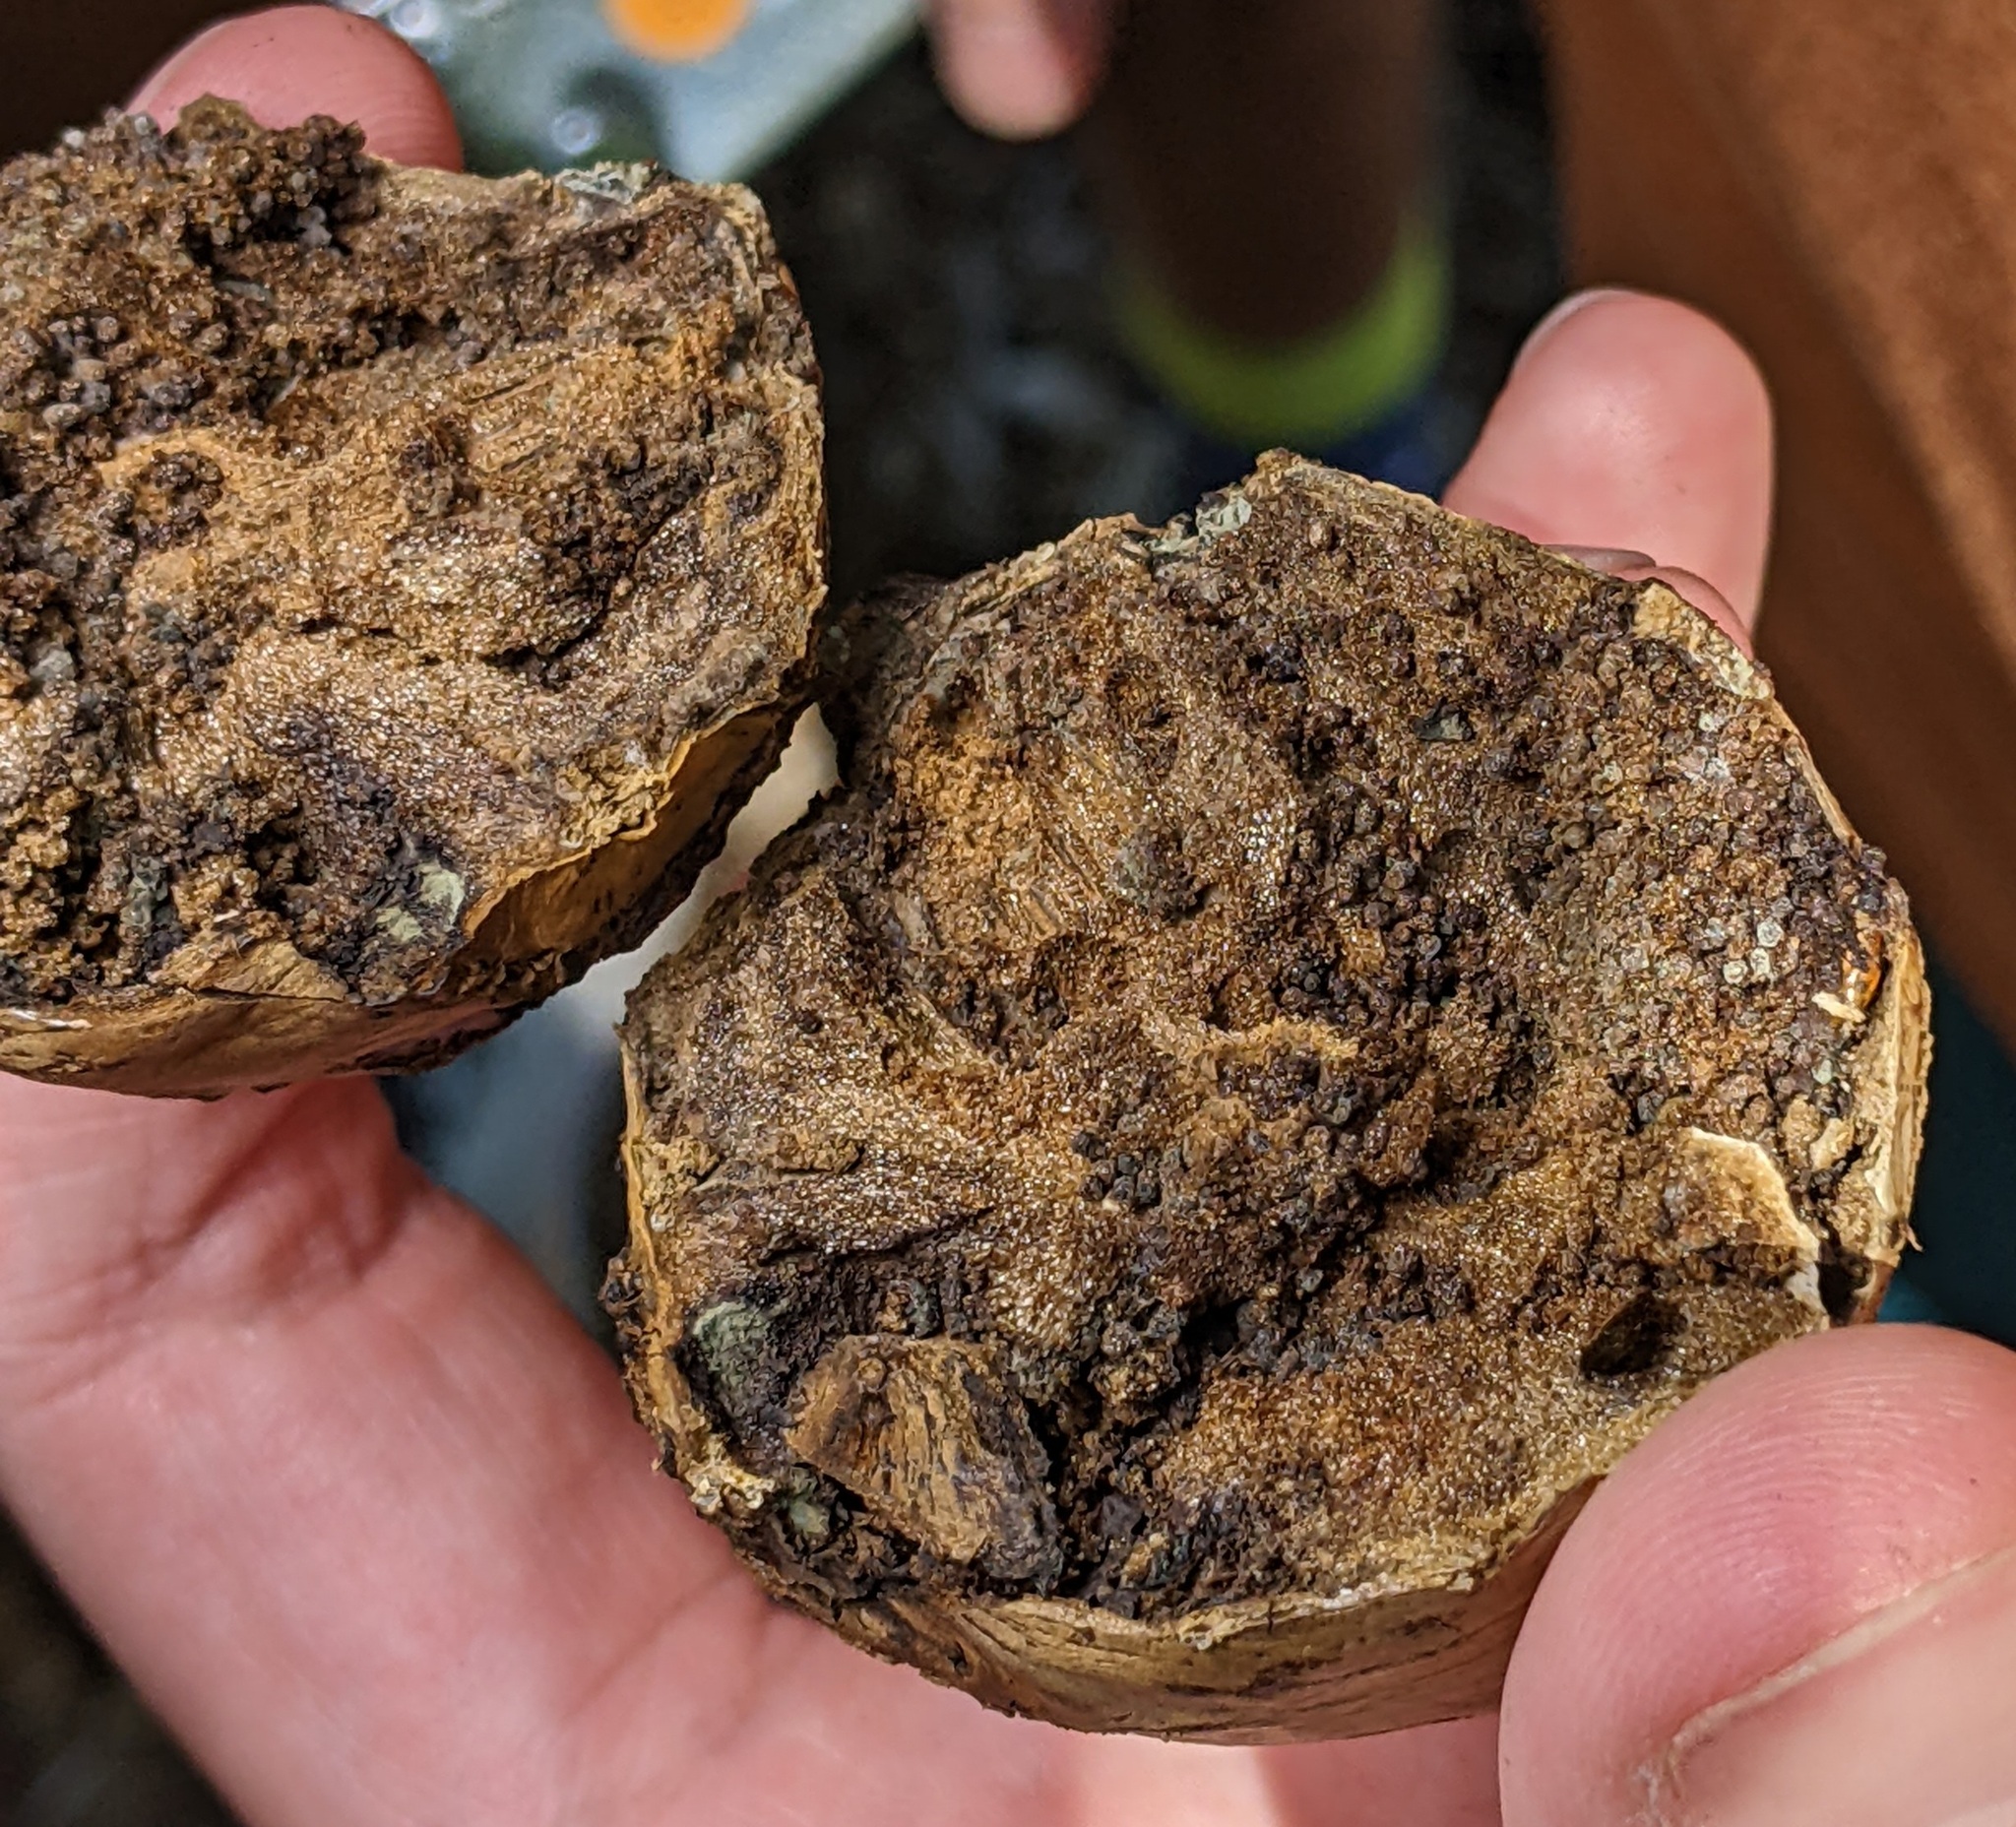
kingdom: Animalia
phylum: Arthropoda
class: Insecta
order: Hymenoptera
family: Cynipidae
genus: Andricus
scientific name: Andricus quercuscalifornicus
